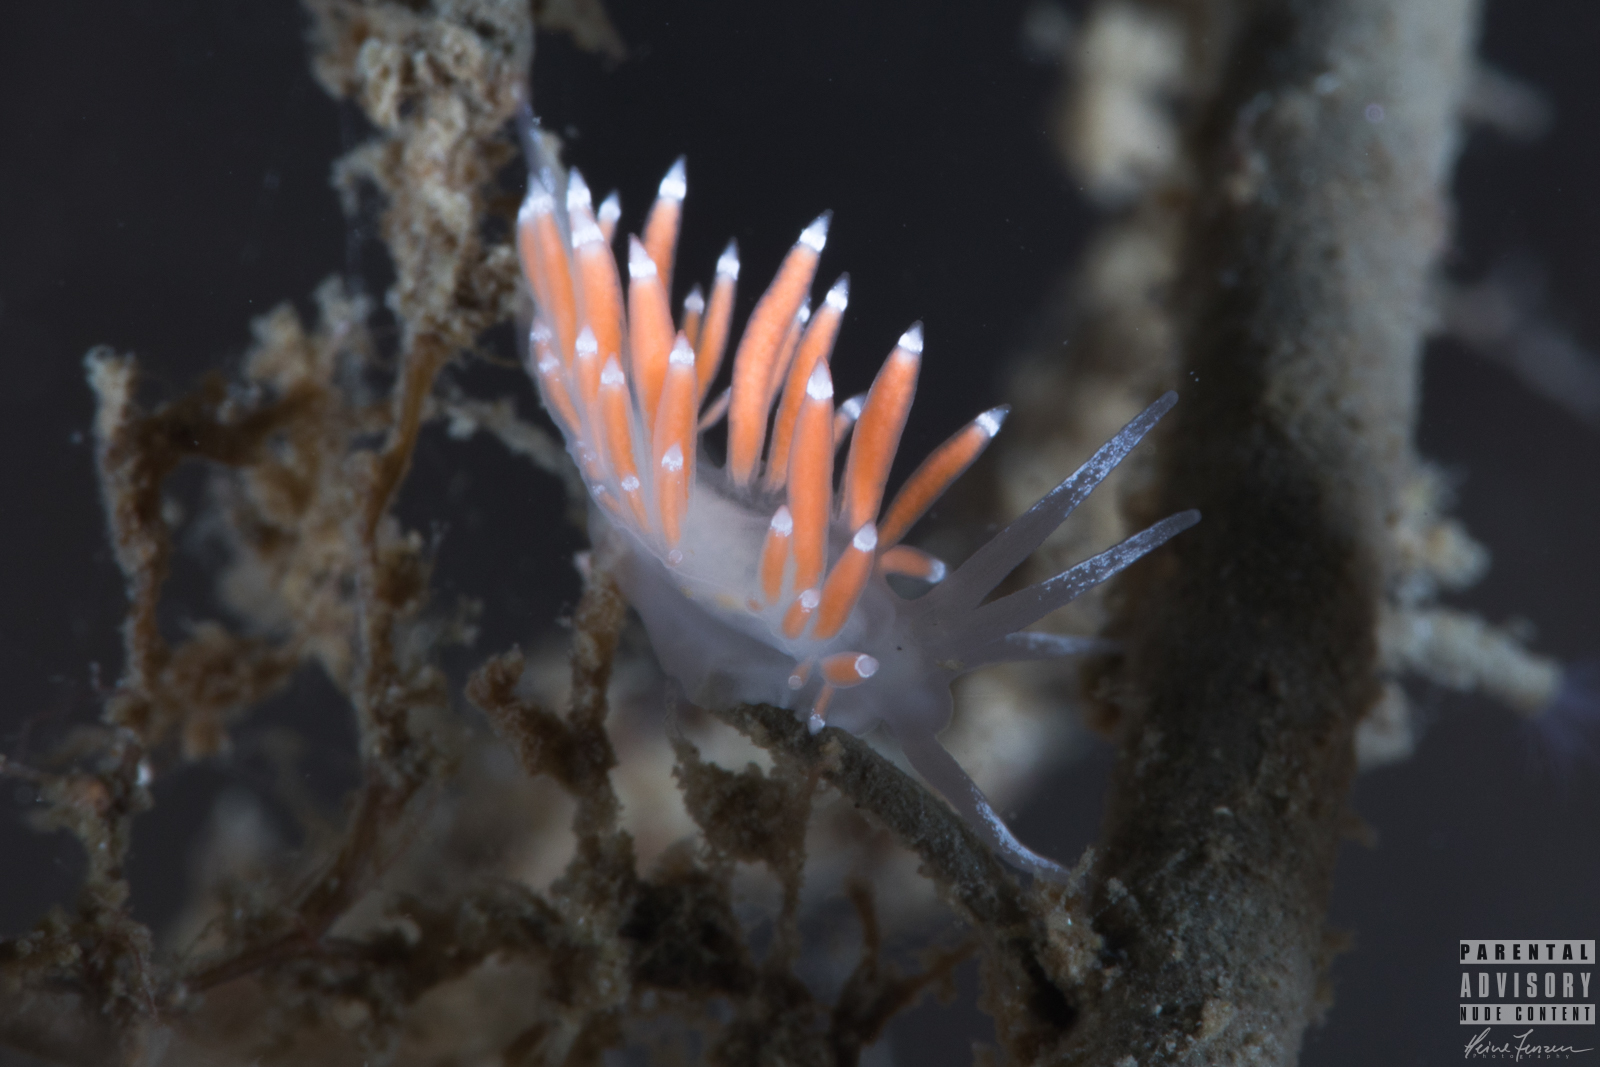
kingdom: Animalia
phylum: Mollusca
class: Gastropoda
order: Nudibranchia
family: Coryphellidae
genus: Coryphella
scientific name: Coryphella gracilis
